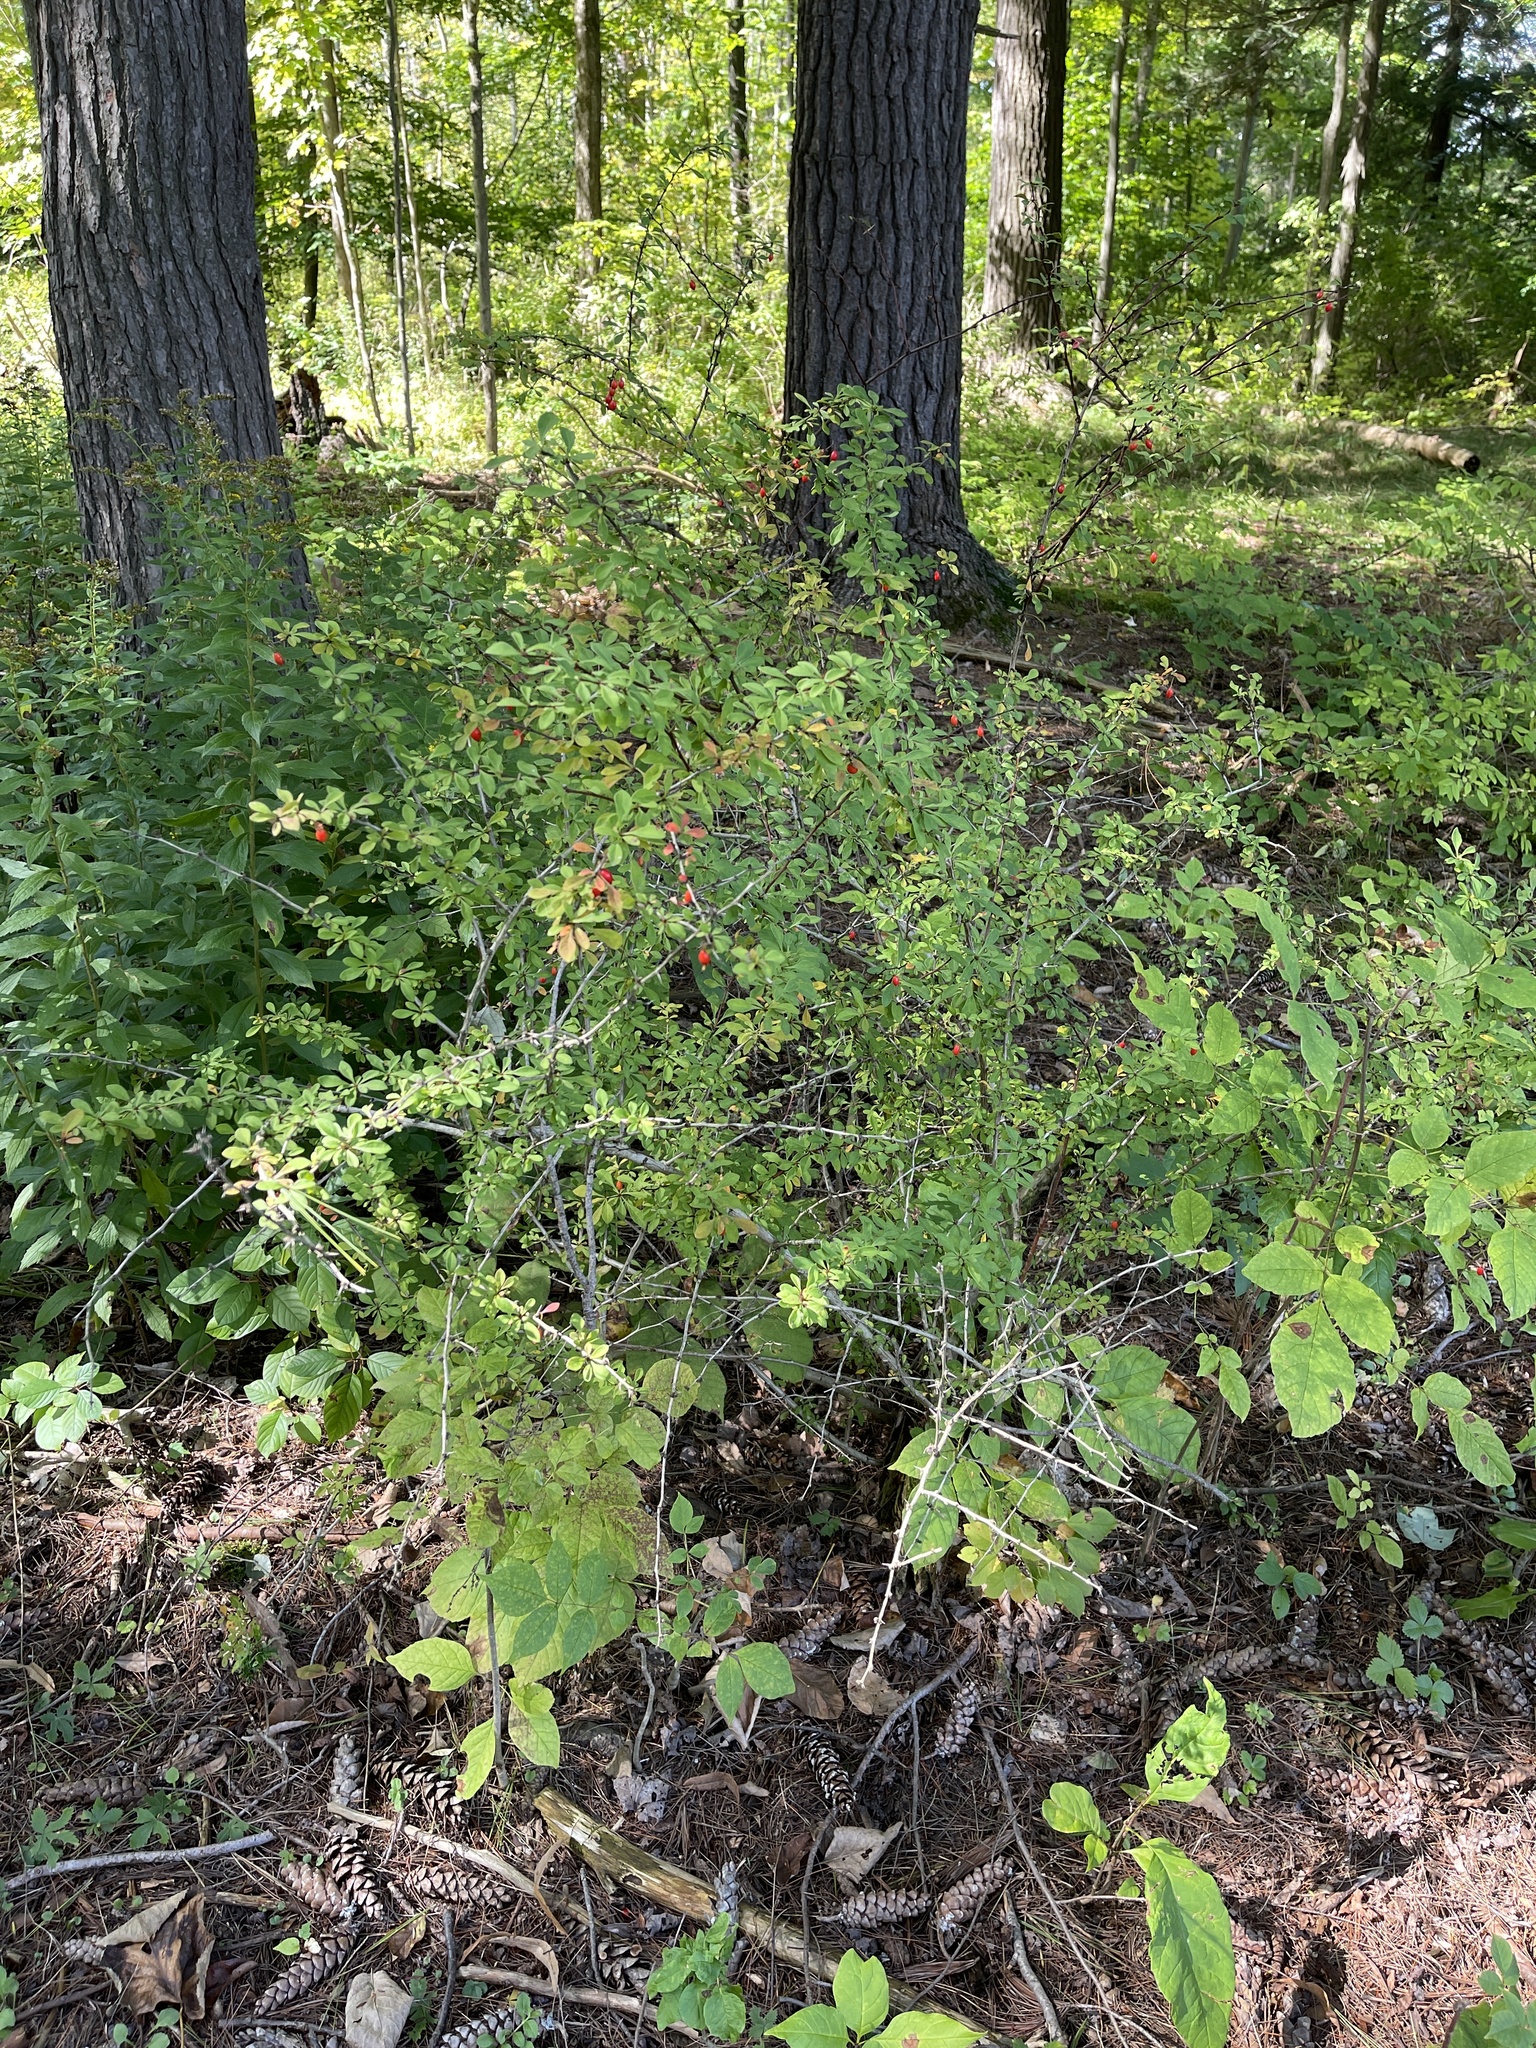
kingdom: Plantae
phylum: Tracheophyta
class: Magnoliopsida
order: Ranunculales
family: Berberidaceae
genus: Berberis
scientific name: Berberis thunbergii
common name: Japanese barberry
